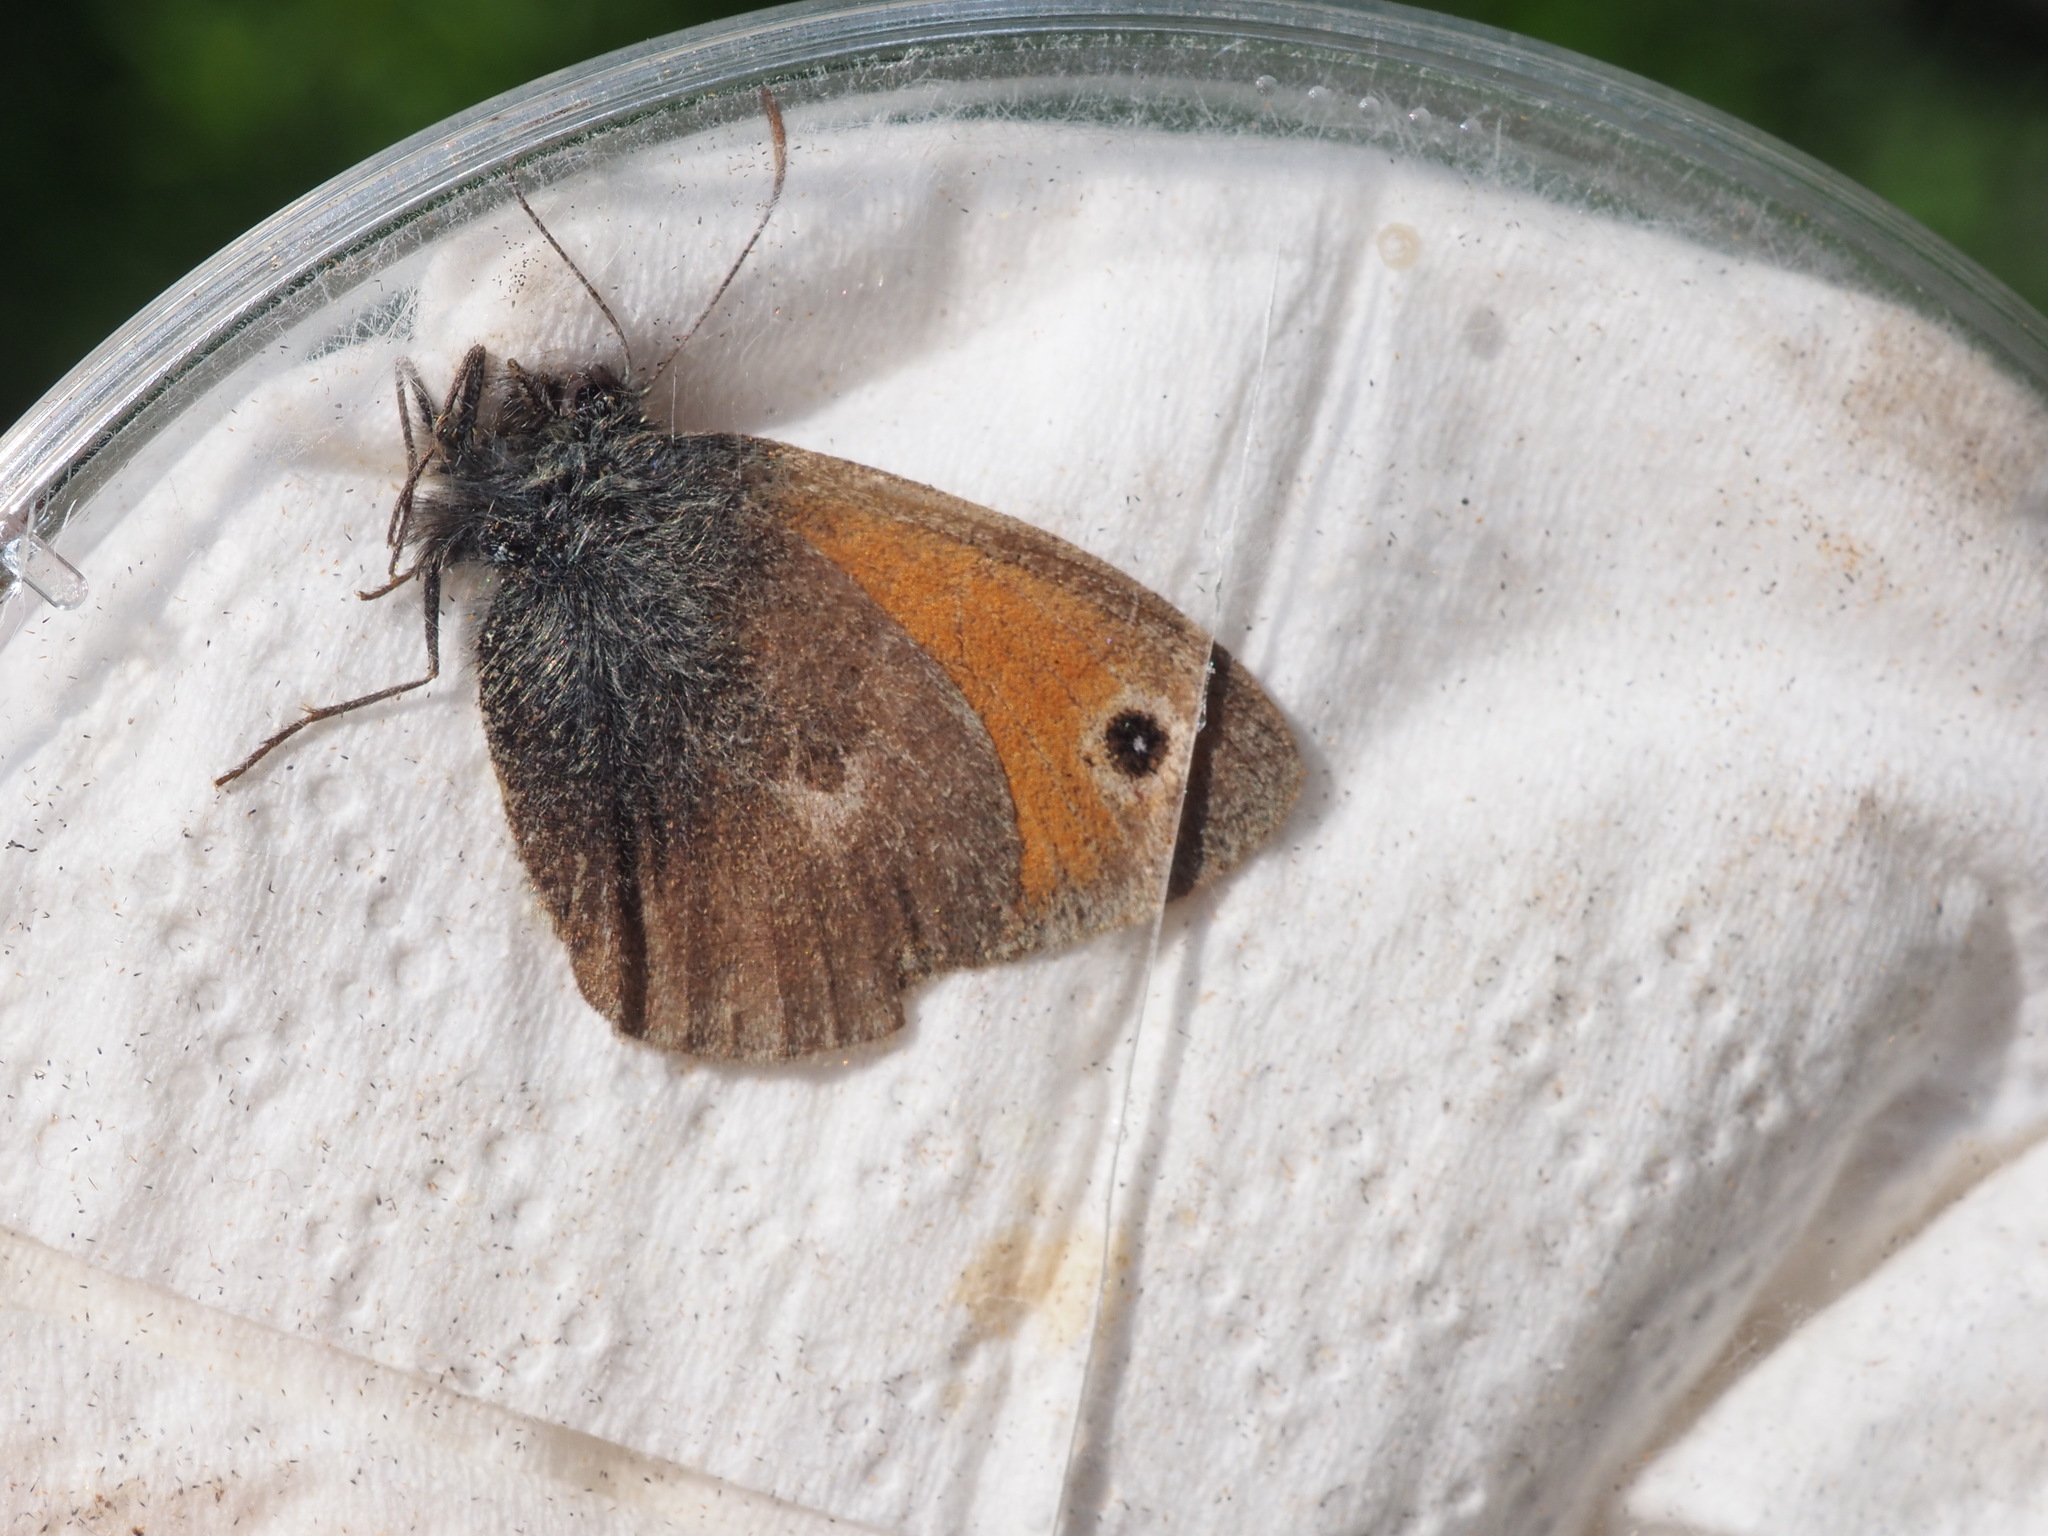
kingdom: Animalia
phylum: Arthropoda
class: Insecta
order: Lepidoptera
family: Nymphalidae
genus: Coenonympha
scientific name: Coenonympha pamphilus
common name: Small heath
